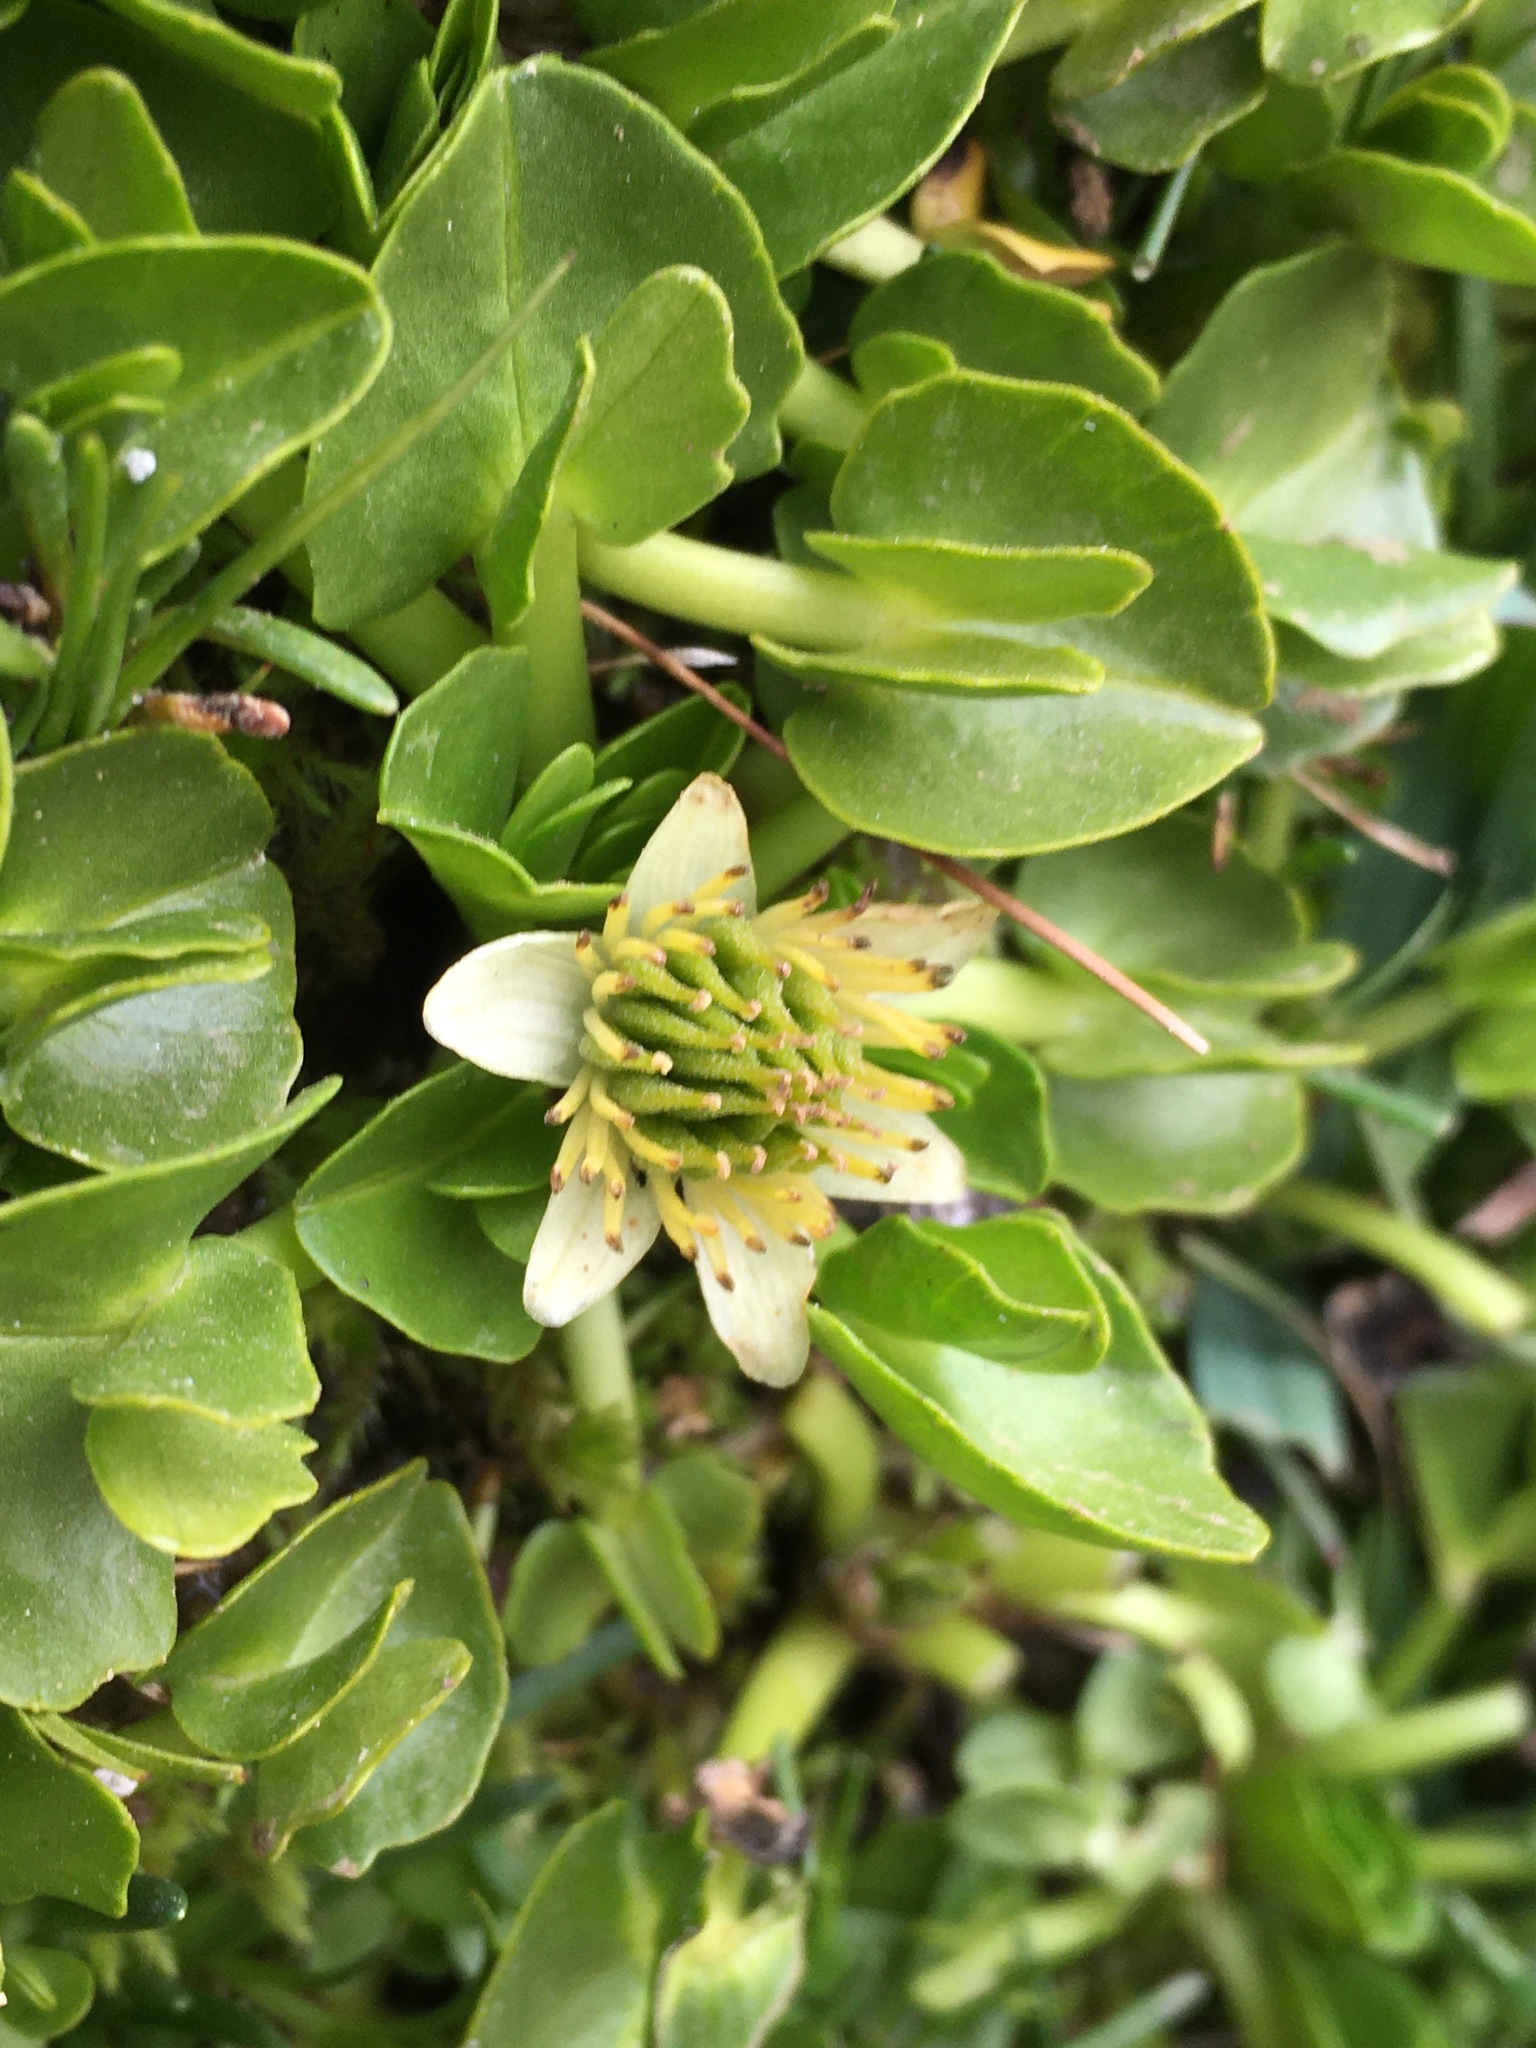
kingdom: Plantae
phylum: Tracheophyta
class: Magnoliopsida
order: Ranunculales
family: Ranunculaceae
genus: Caltha
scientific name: Caltha sagittata
